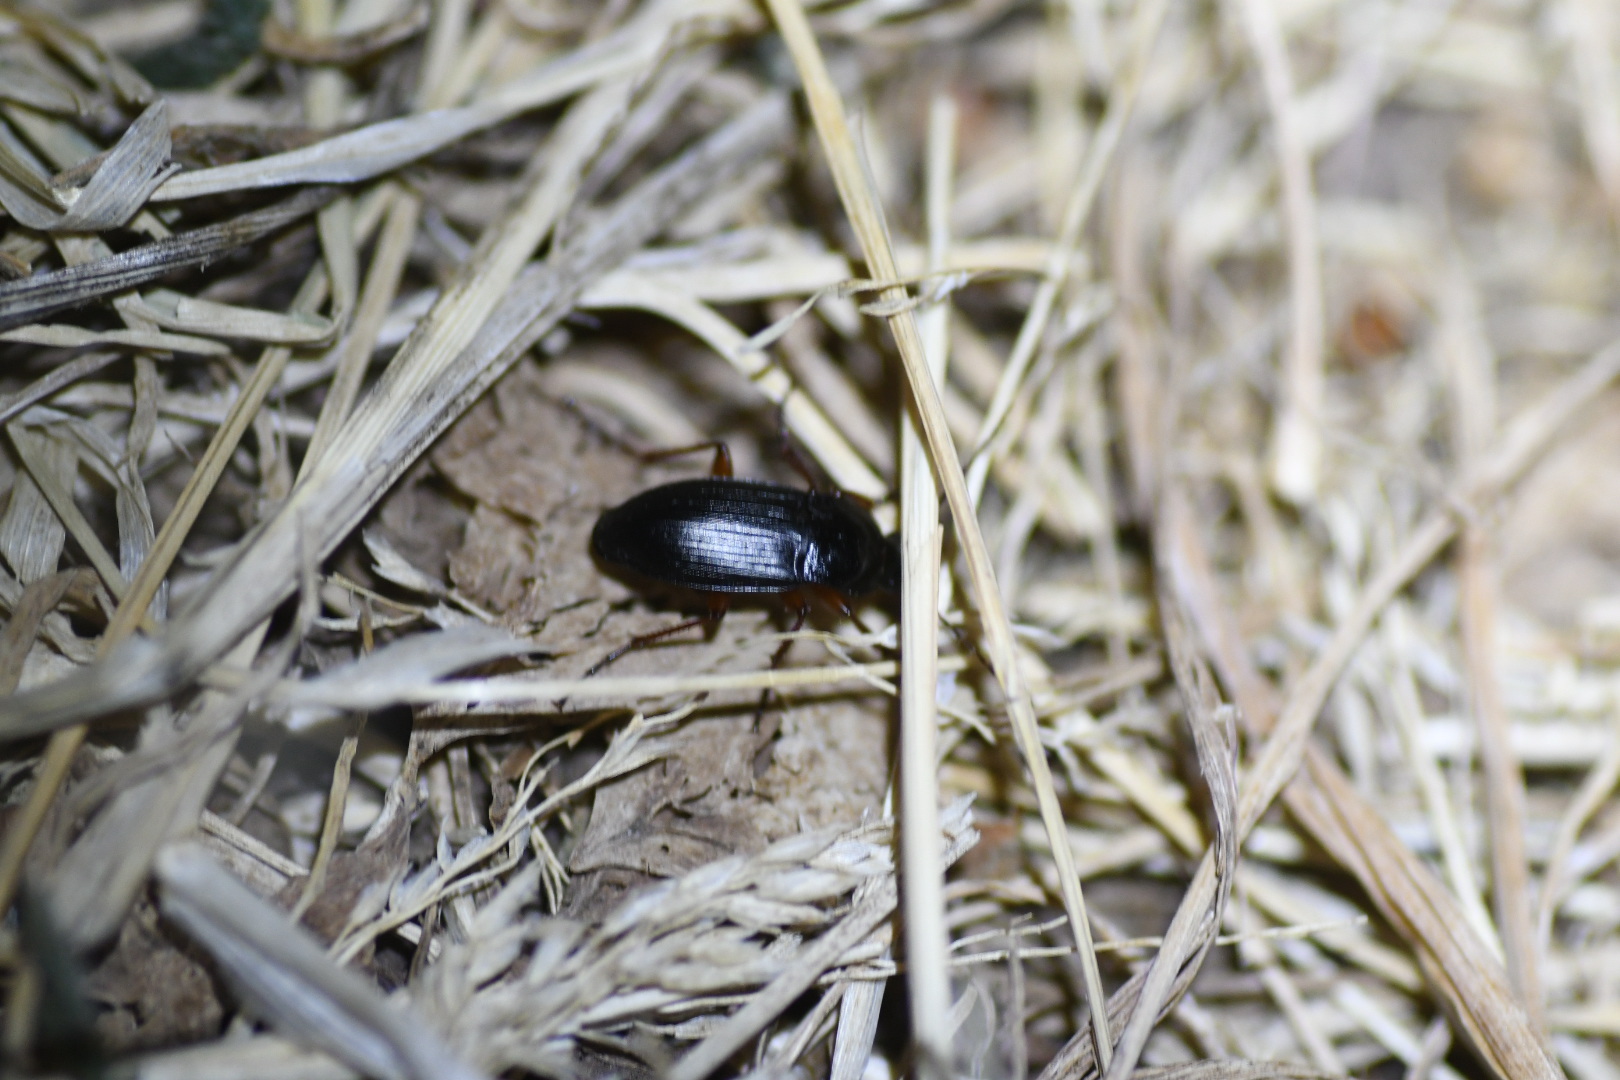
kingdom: Animalia
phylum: Arthropoda
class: Insecta
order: Coleoptera
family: Carabidae
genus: Calathus
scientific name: Calathus fuscipes
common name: Dark-footed harp ground beetle
